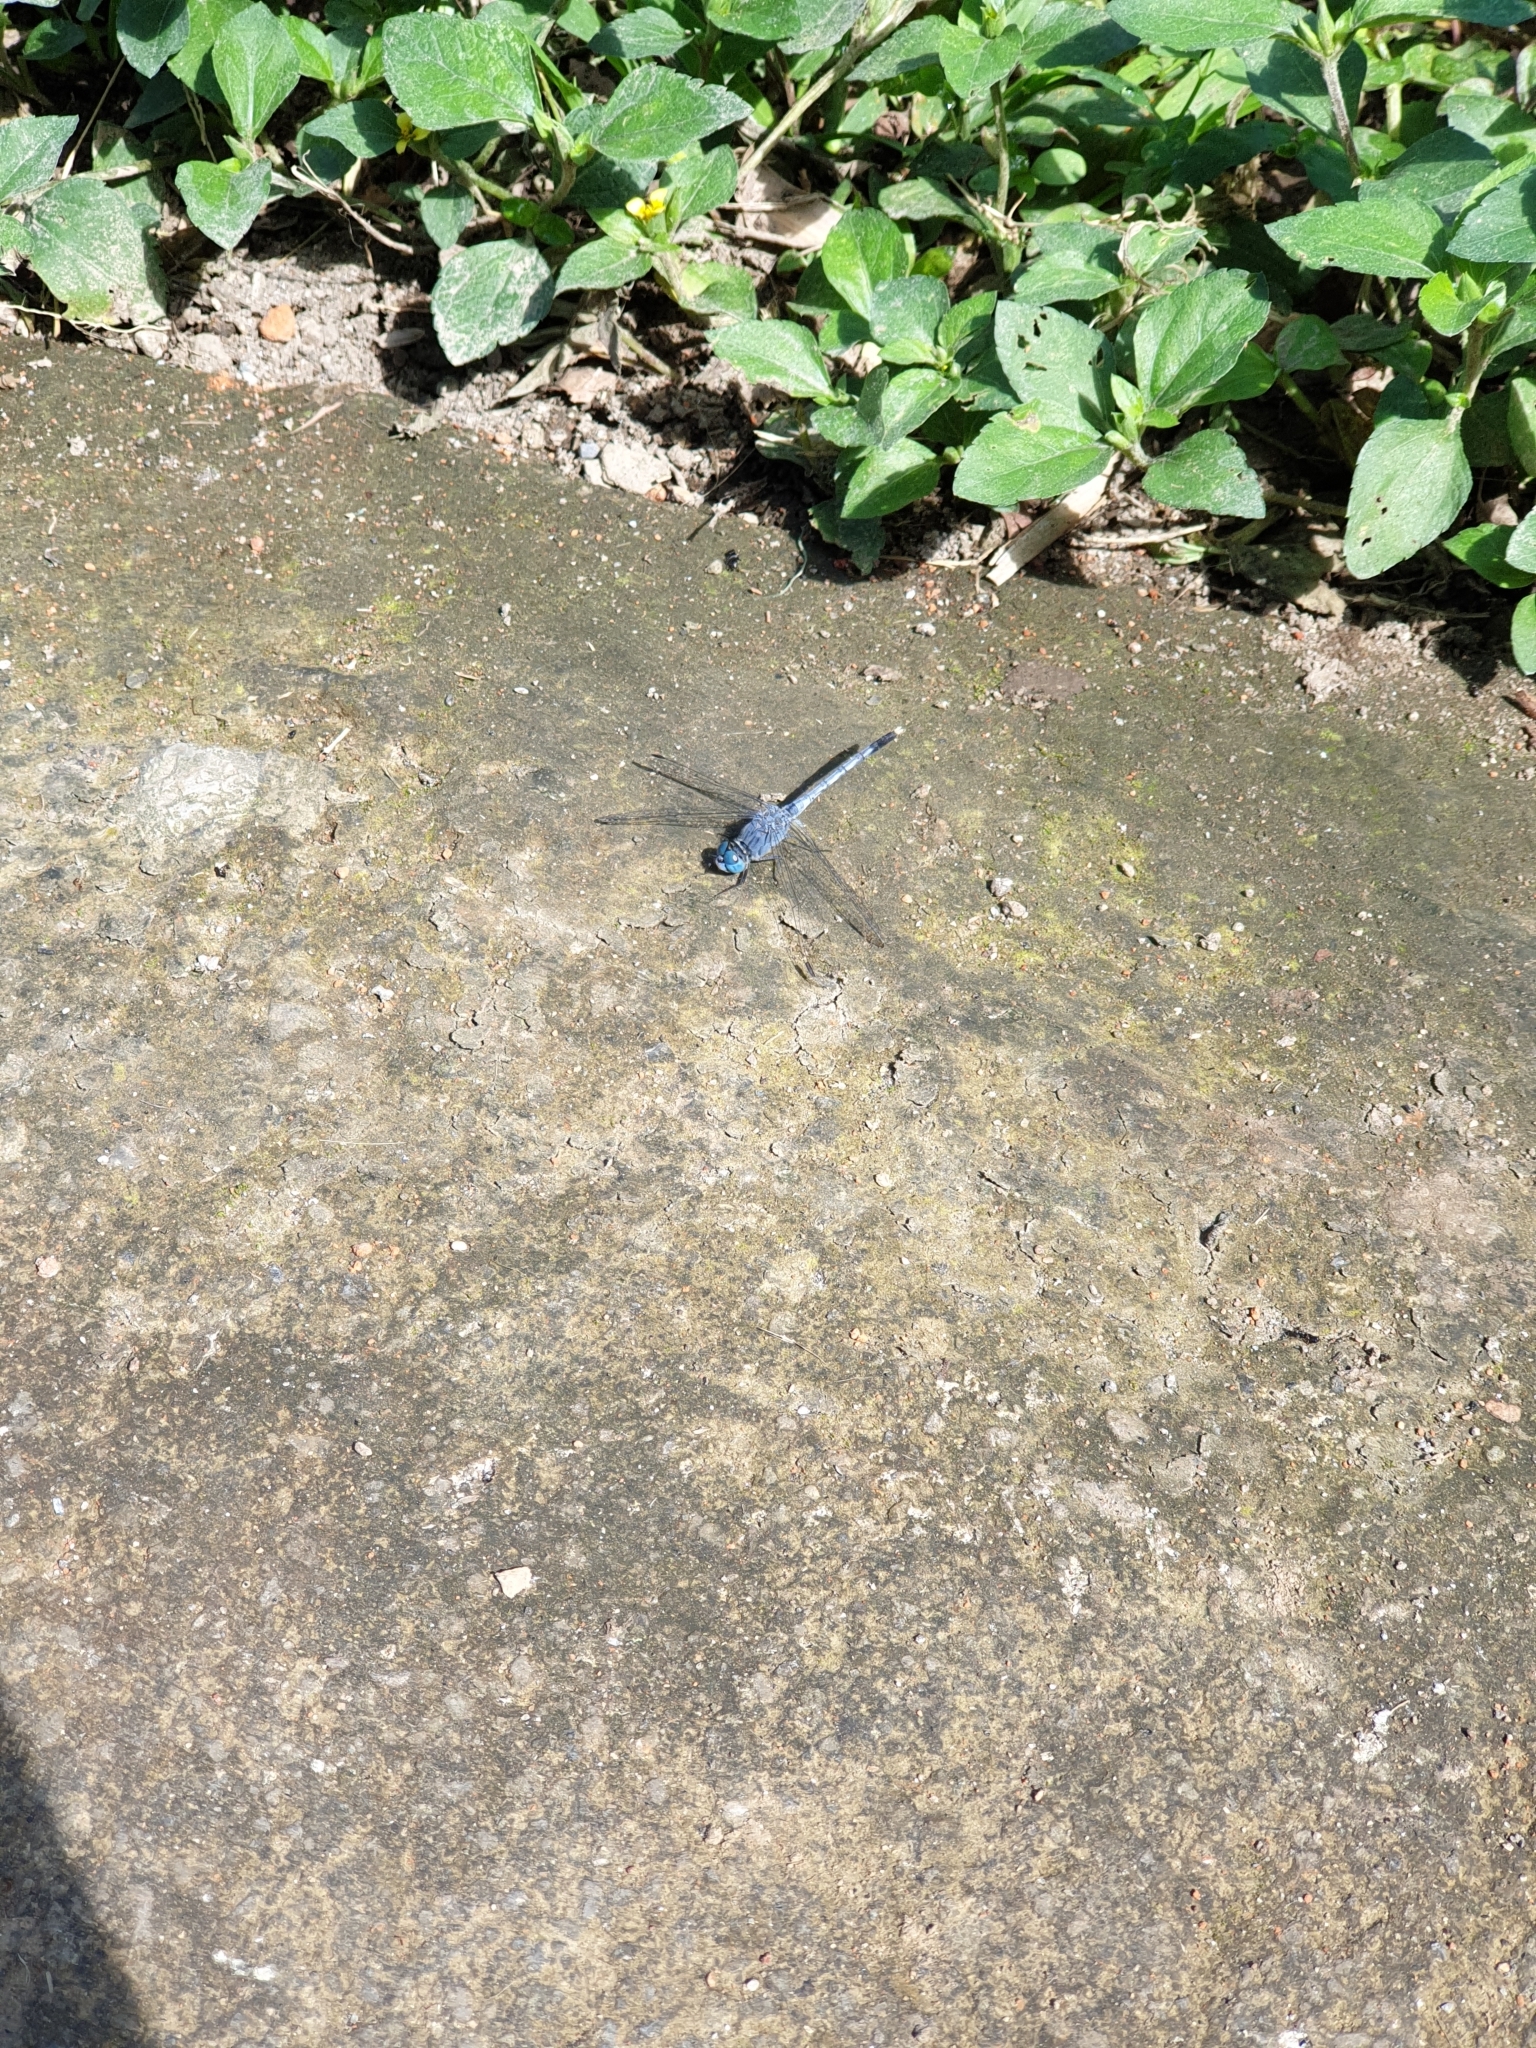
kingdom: Animalia
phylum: Arthropoda
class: Insecta
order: Odonata
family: Libellulidae
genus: Diplacodes
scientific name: Diplacodes trivialis
